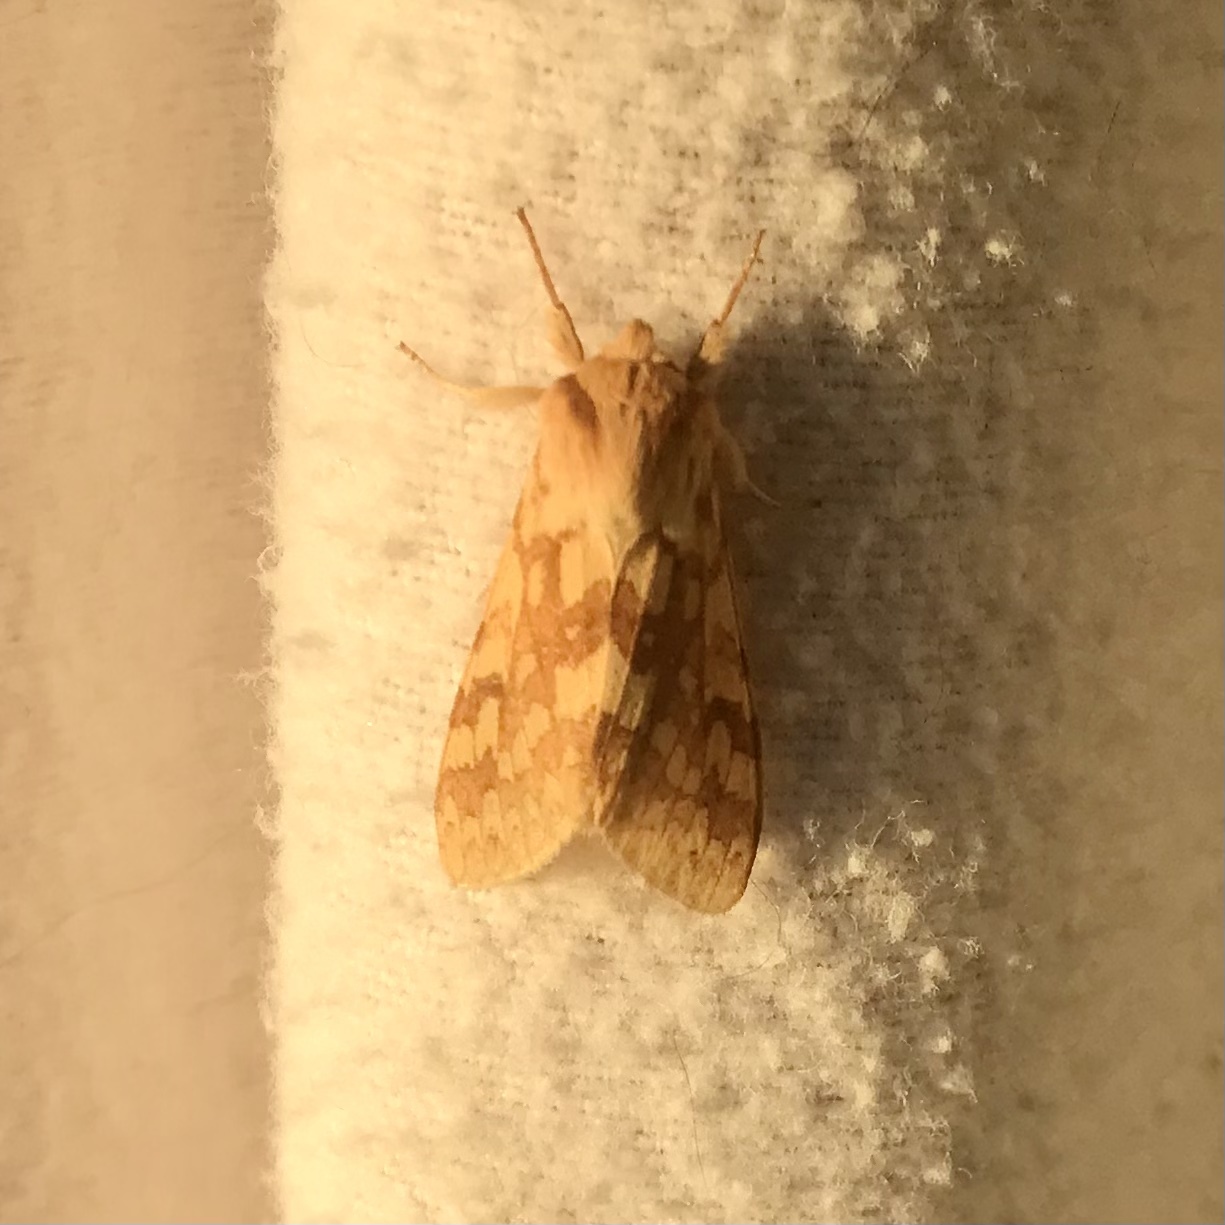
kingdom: Animalia
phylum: Arthropoda
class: Insecta
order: Lepidoptera
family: Erebidae
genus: Lophocampa
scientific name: Lophocampa maculata
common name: Spotted tussock moth
